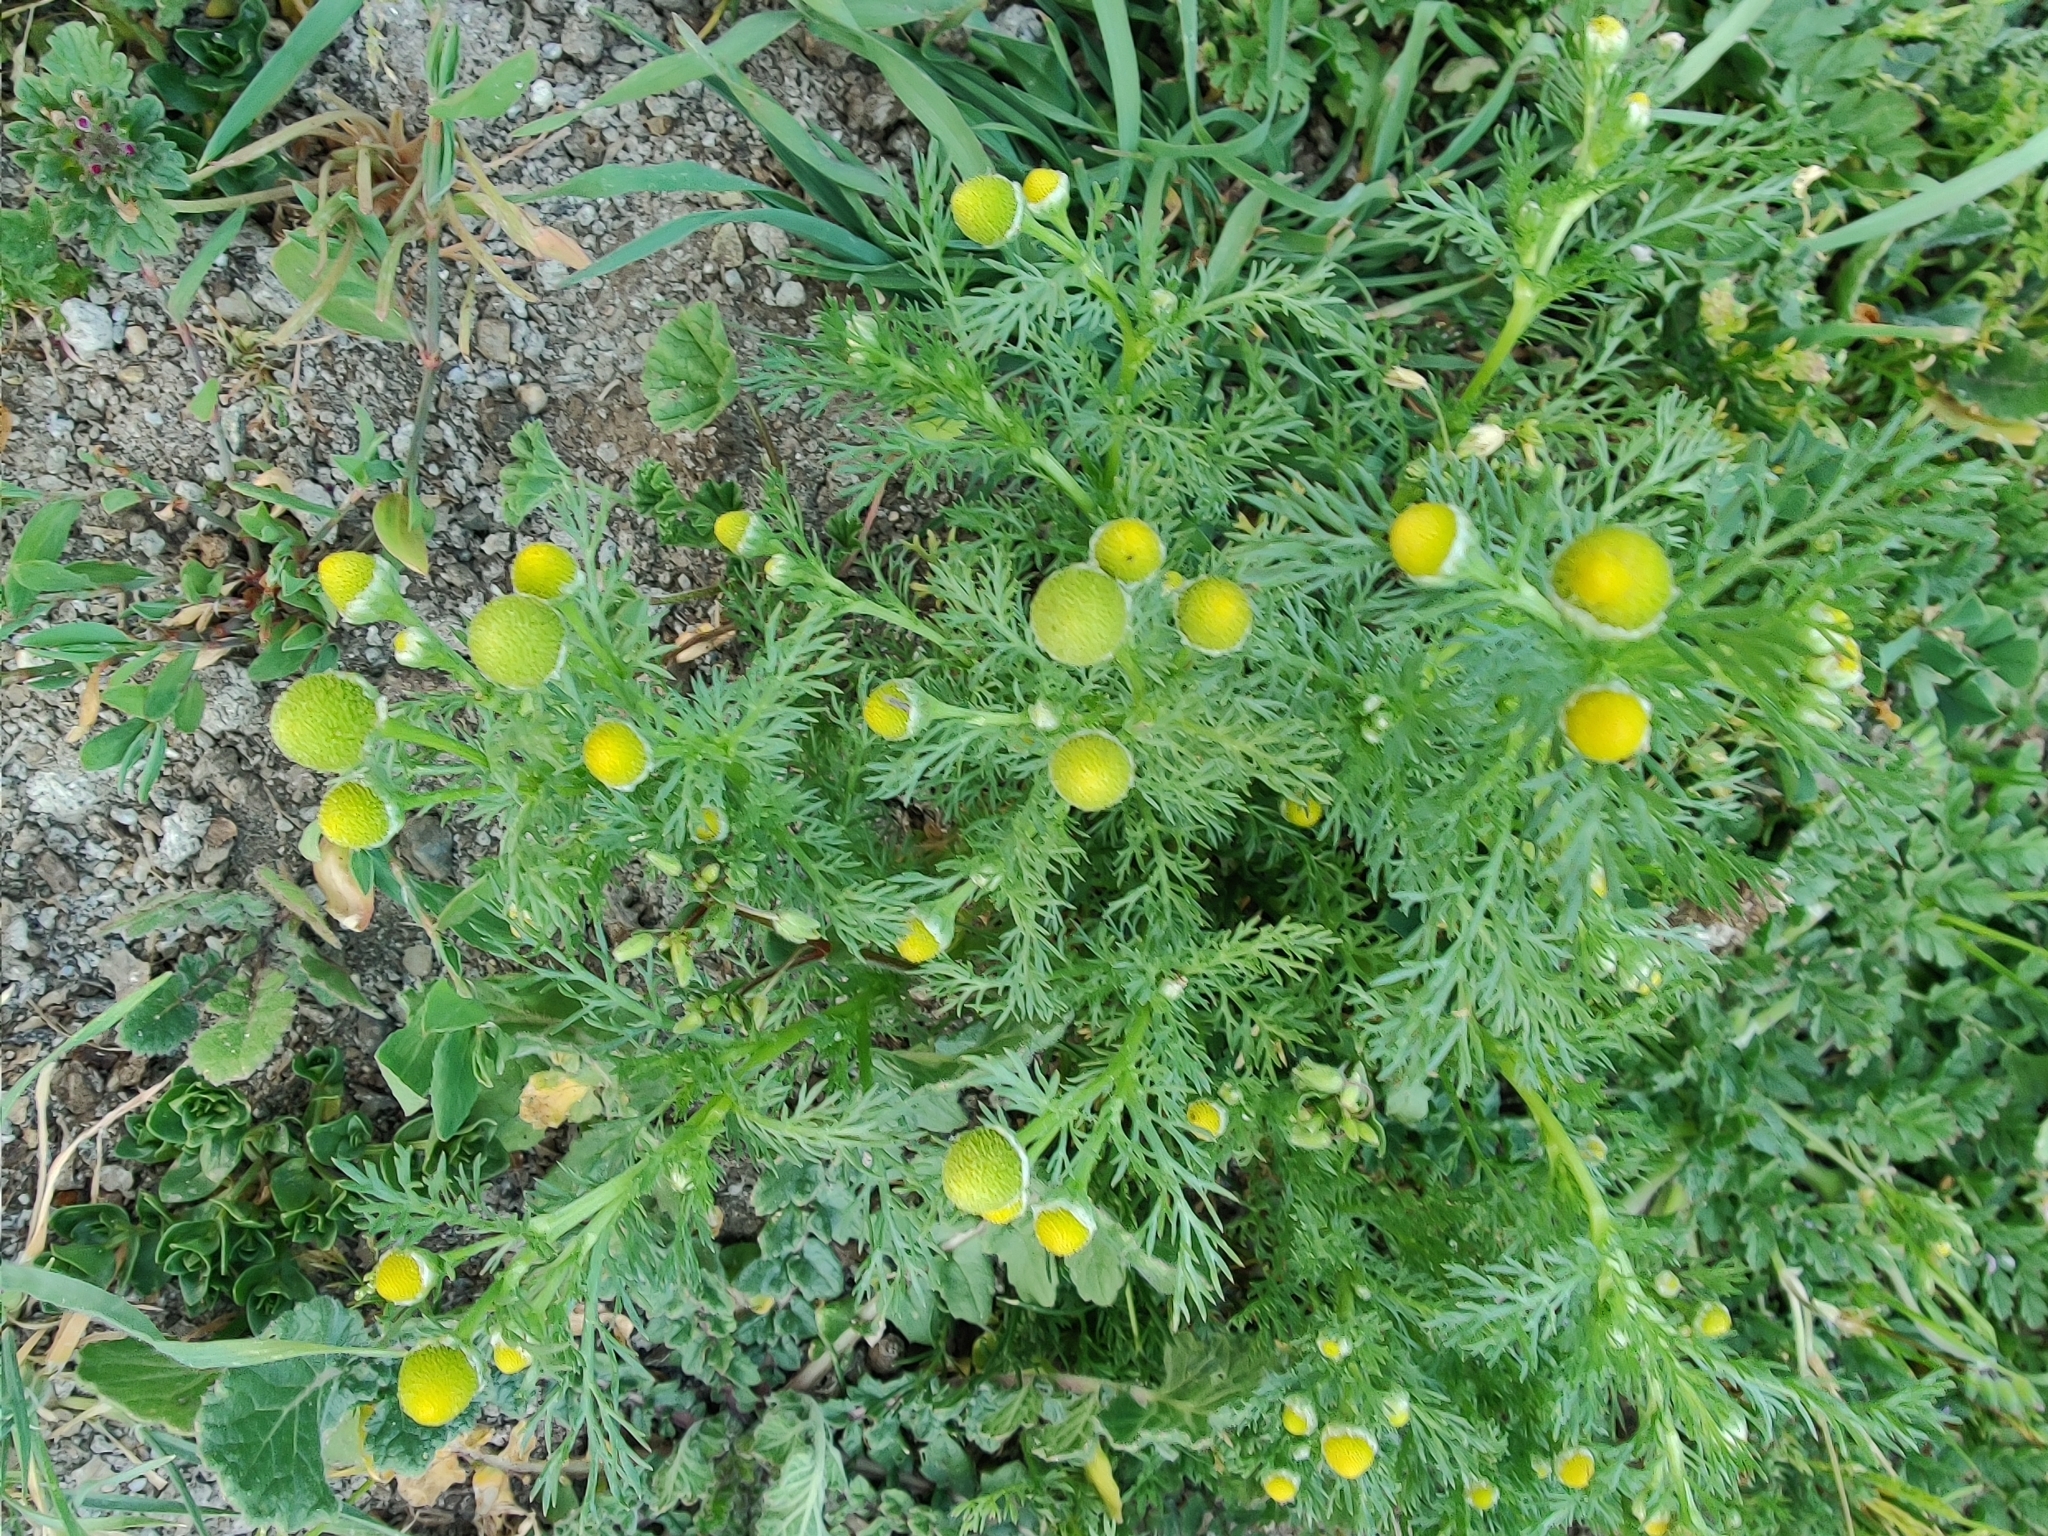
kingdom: Plantae
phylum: Tracheophyta
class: Magnoliopsida
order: Asterales
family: Asteraceae
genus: Matricaria
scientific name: Matricaria discoidea
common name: Disc mayweed
